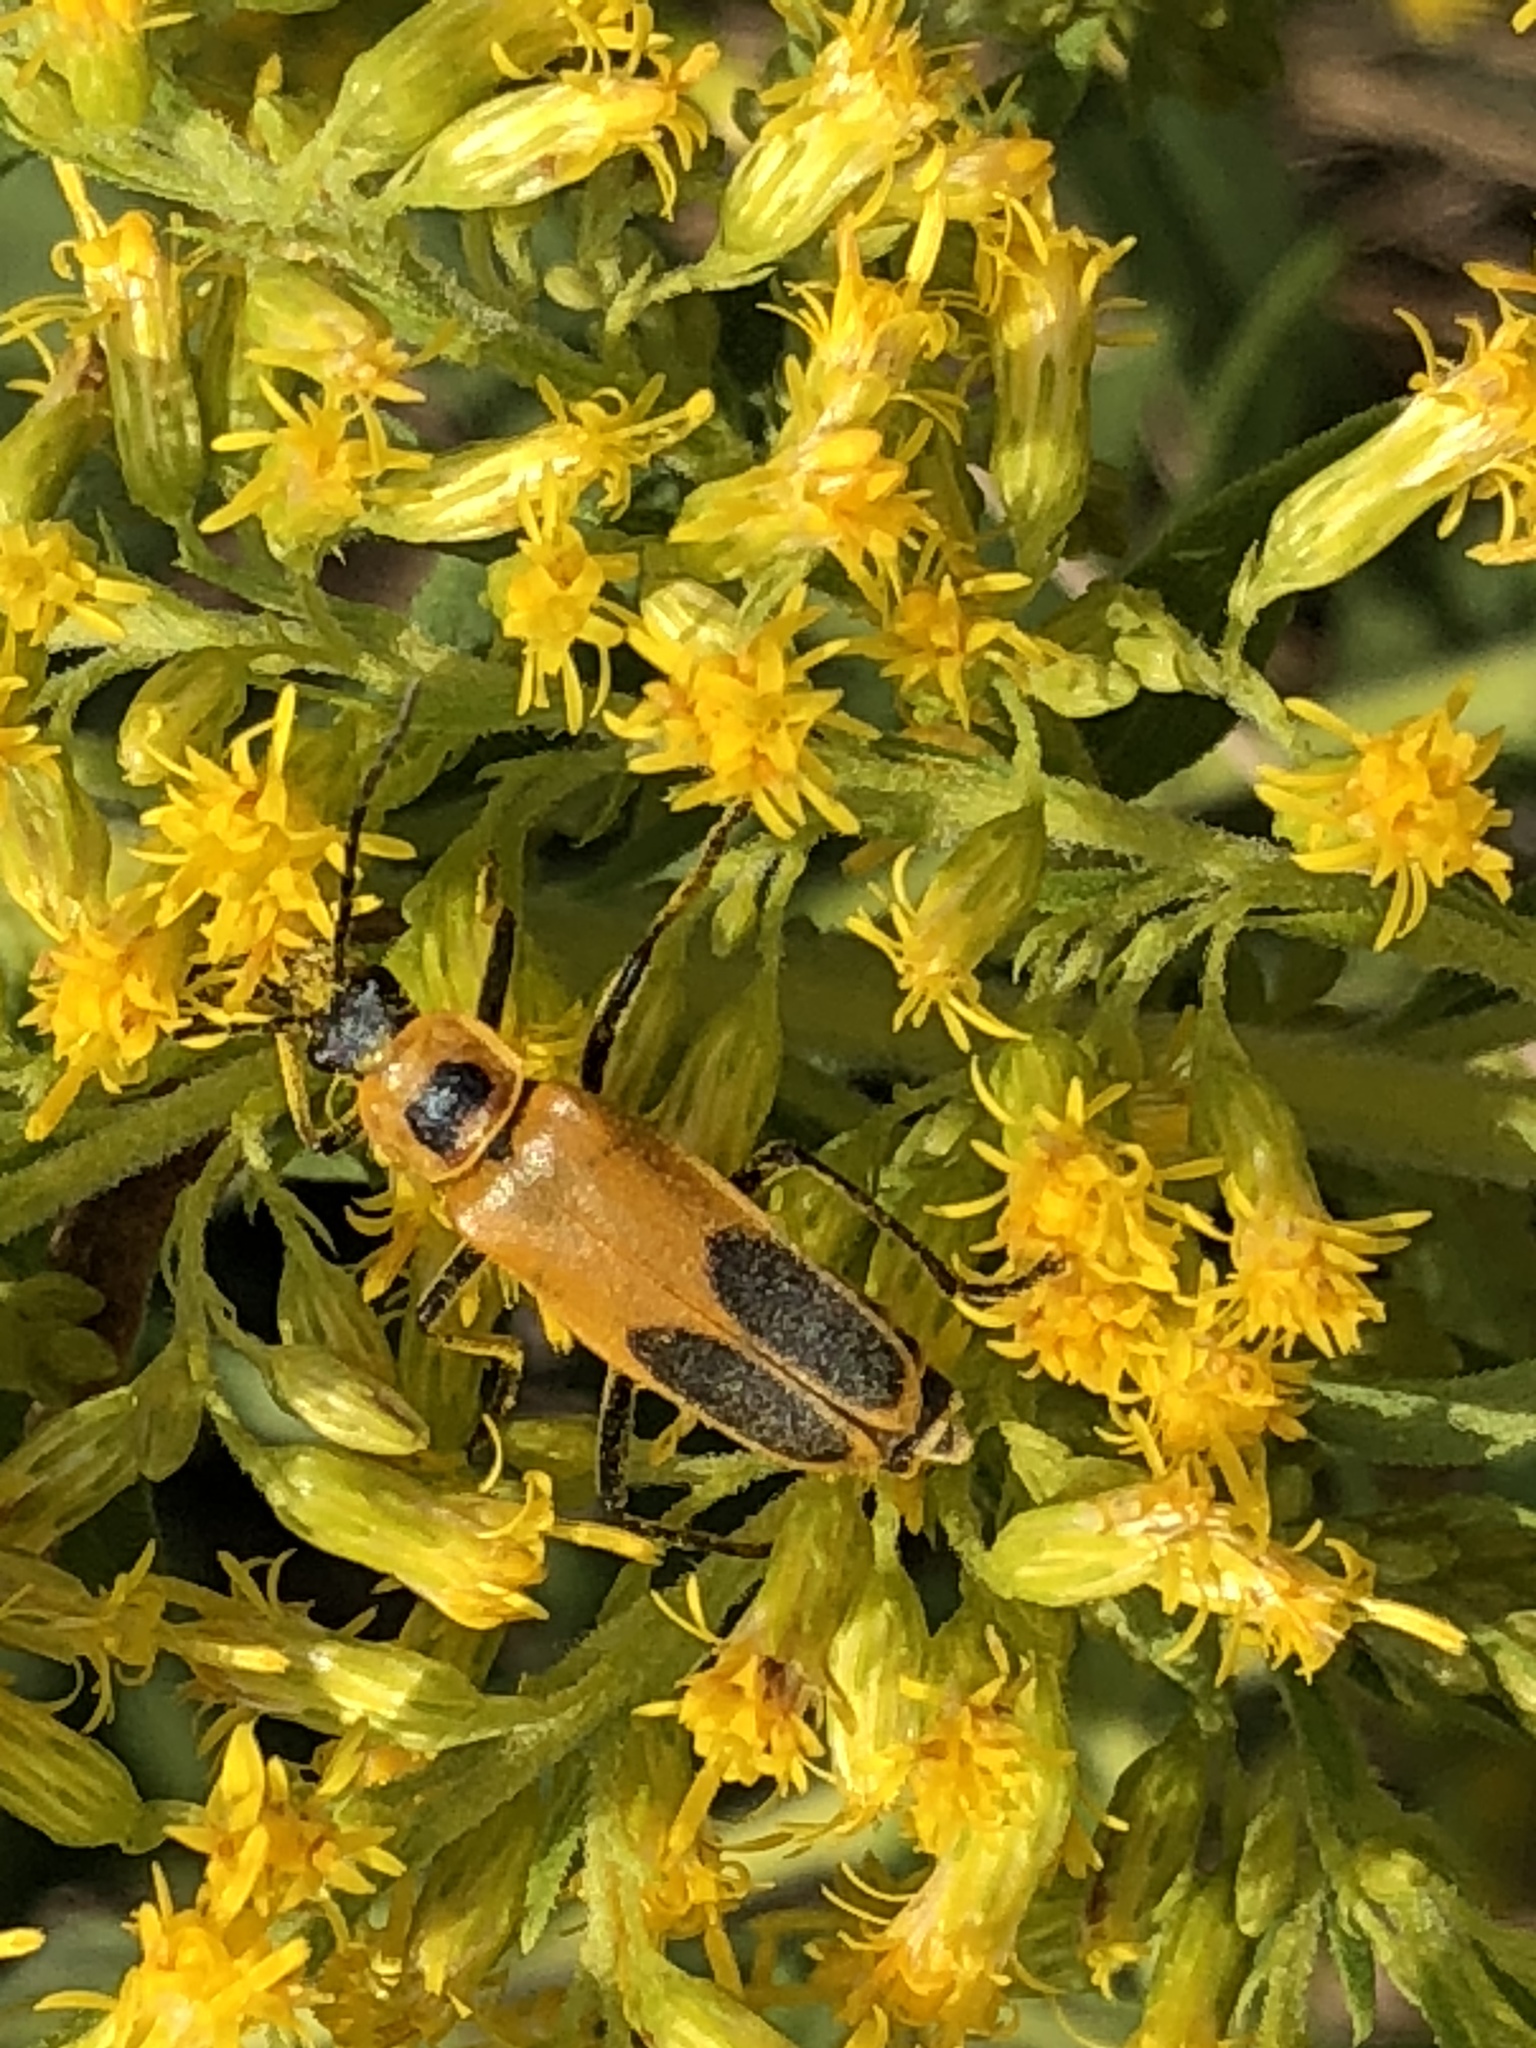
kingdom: Animalia
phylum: Arthropoda
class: Insecta
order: Coleoptera
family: Cantharidae
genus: Chauliognathus
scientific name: Chauliognathus pensylvanicus
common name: Goldenrod soldier beetle
